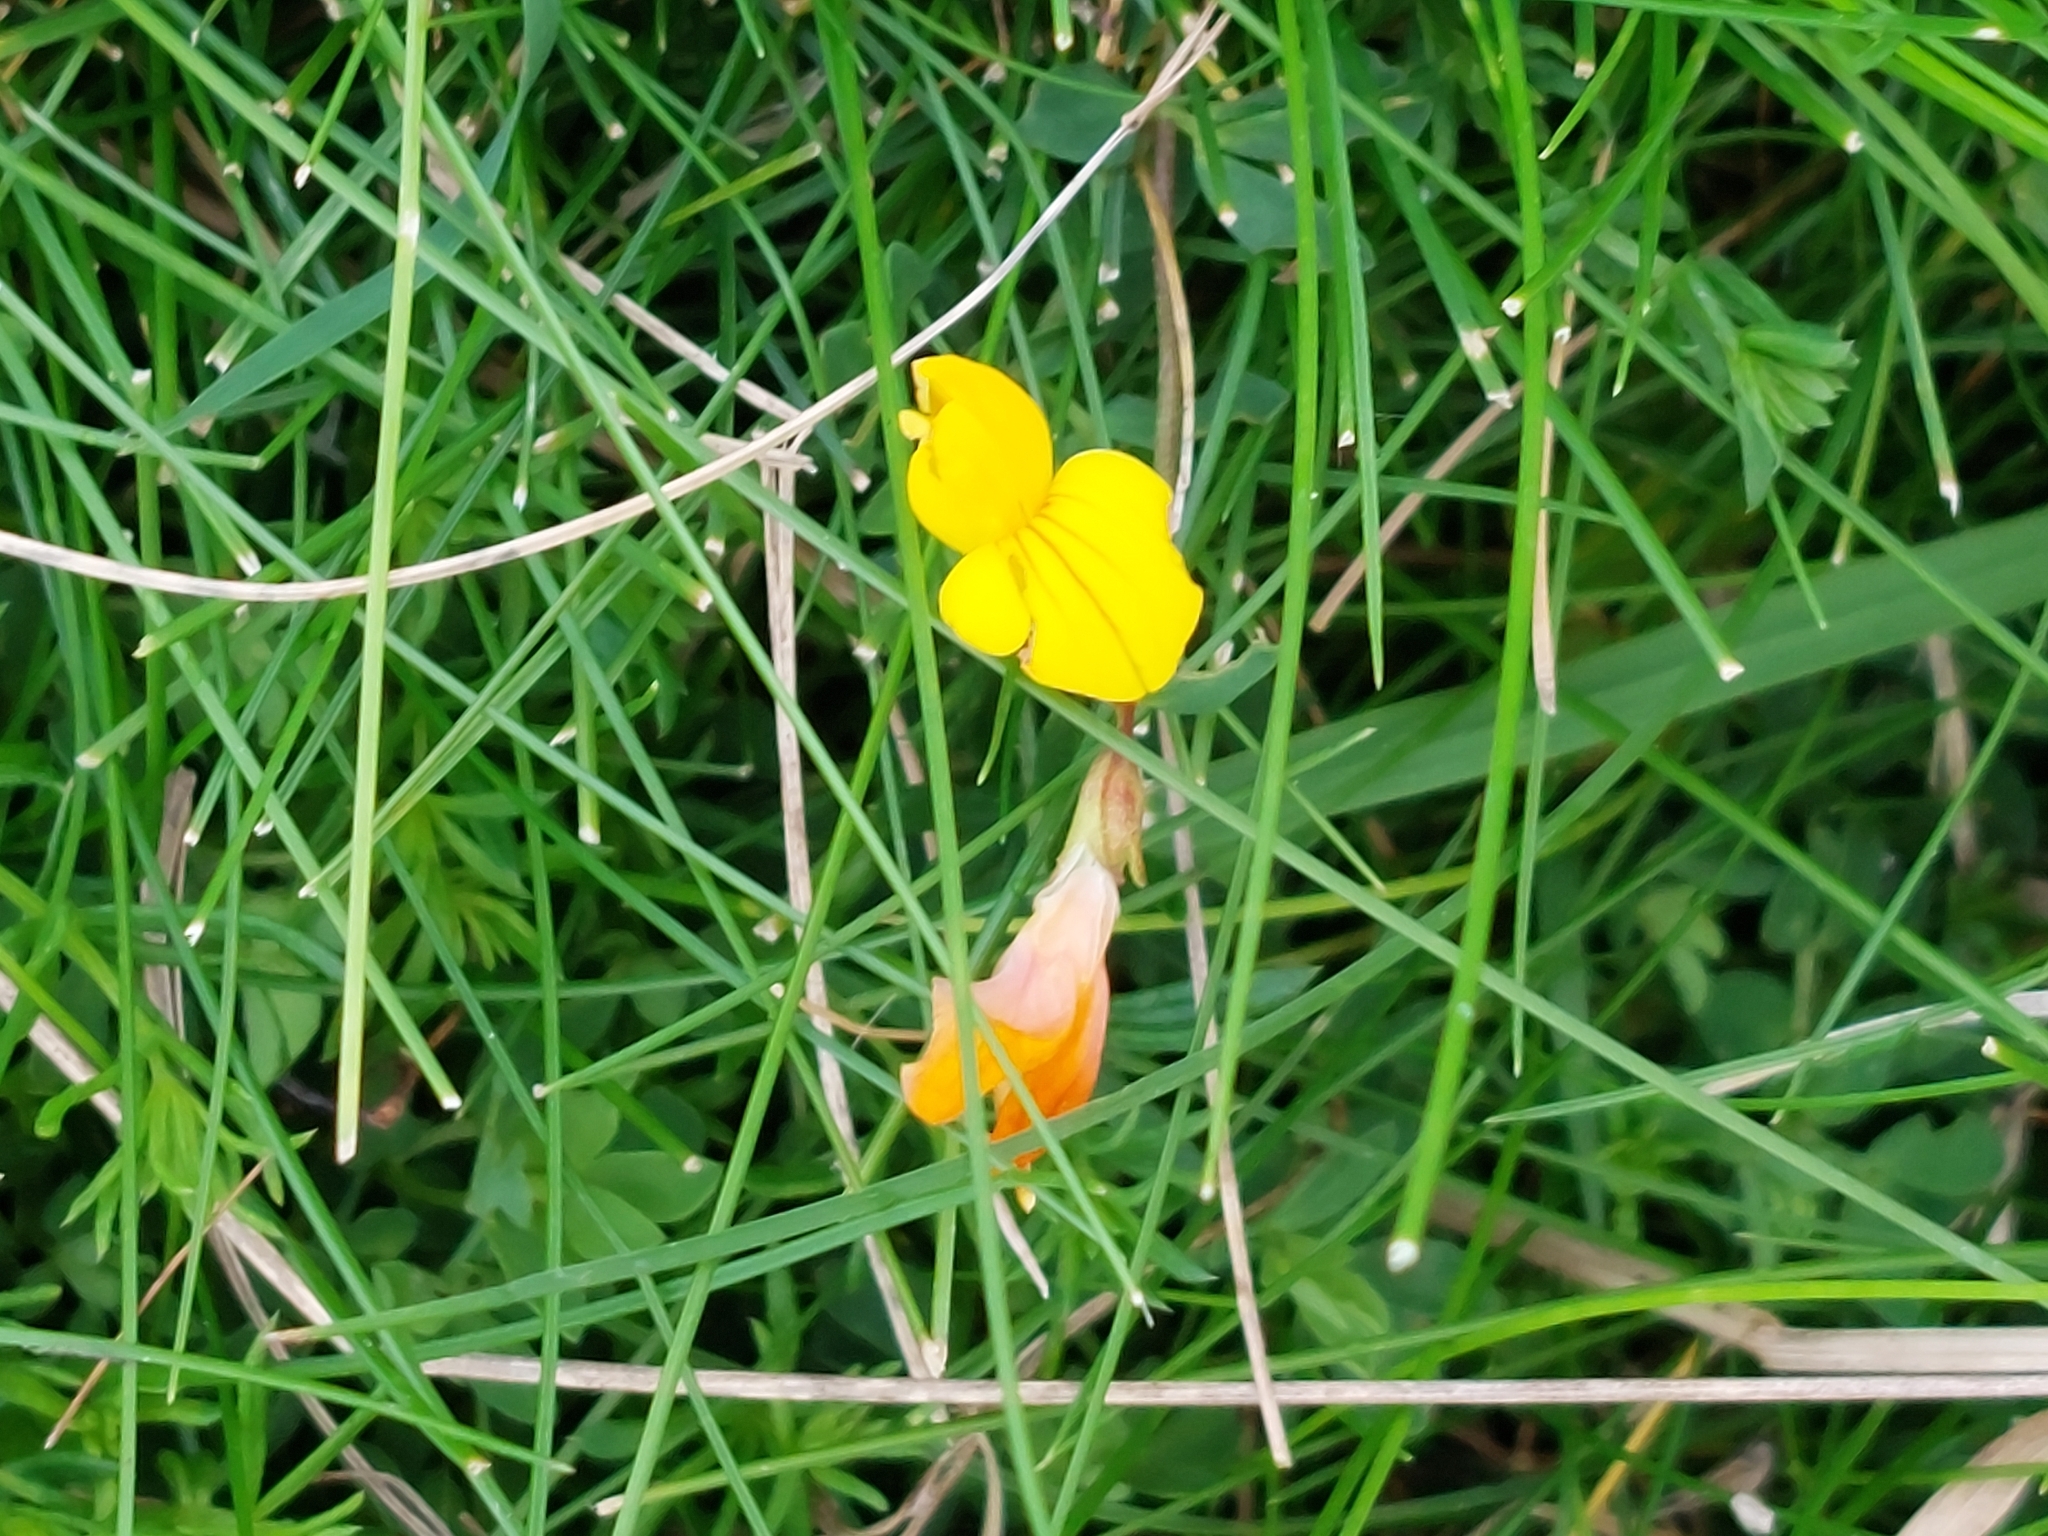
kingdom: Plantae
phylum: Tracheophyta
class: Magnoliopsida
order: Fabales
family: Fabaceae
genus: Lotus
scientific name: Lotus corniculatus
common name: Common bird's-foot-trefoil
